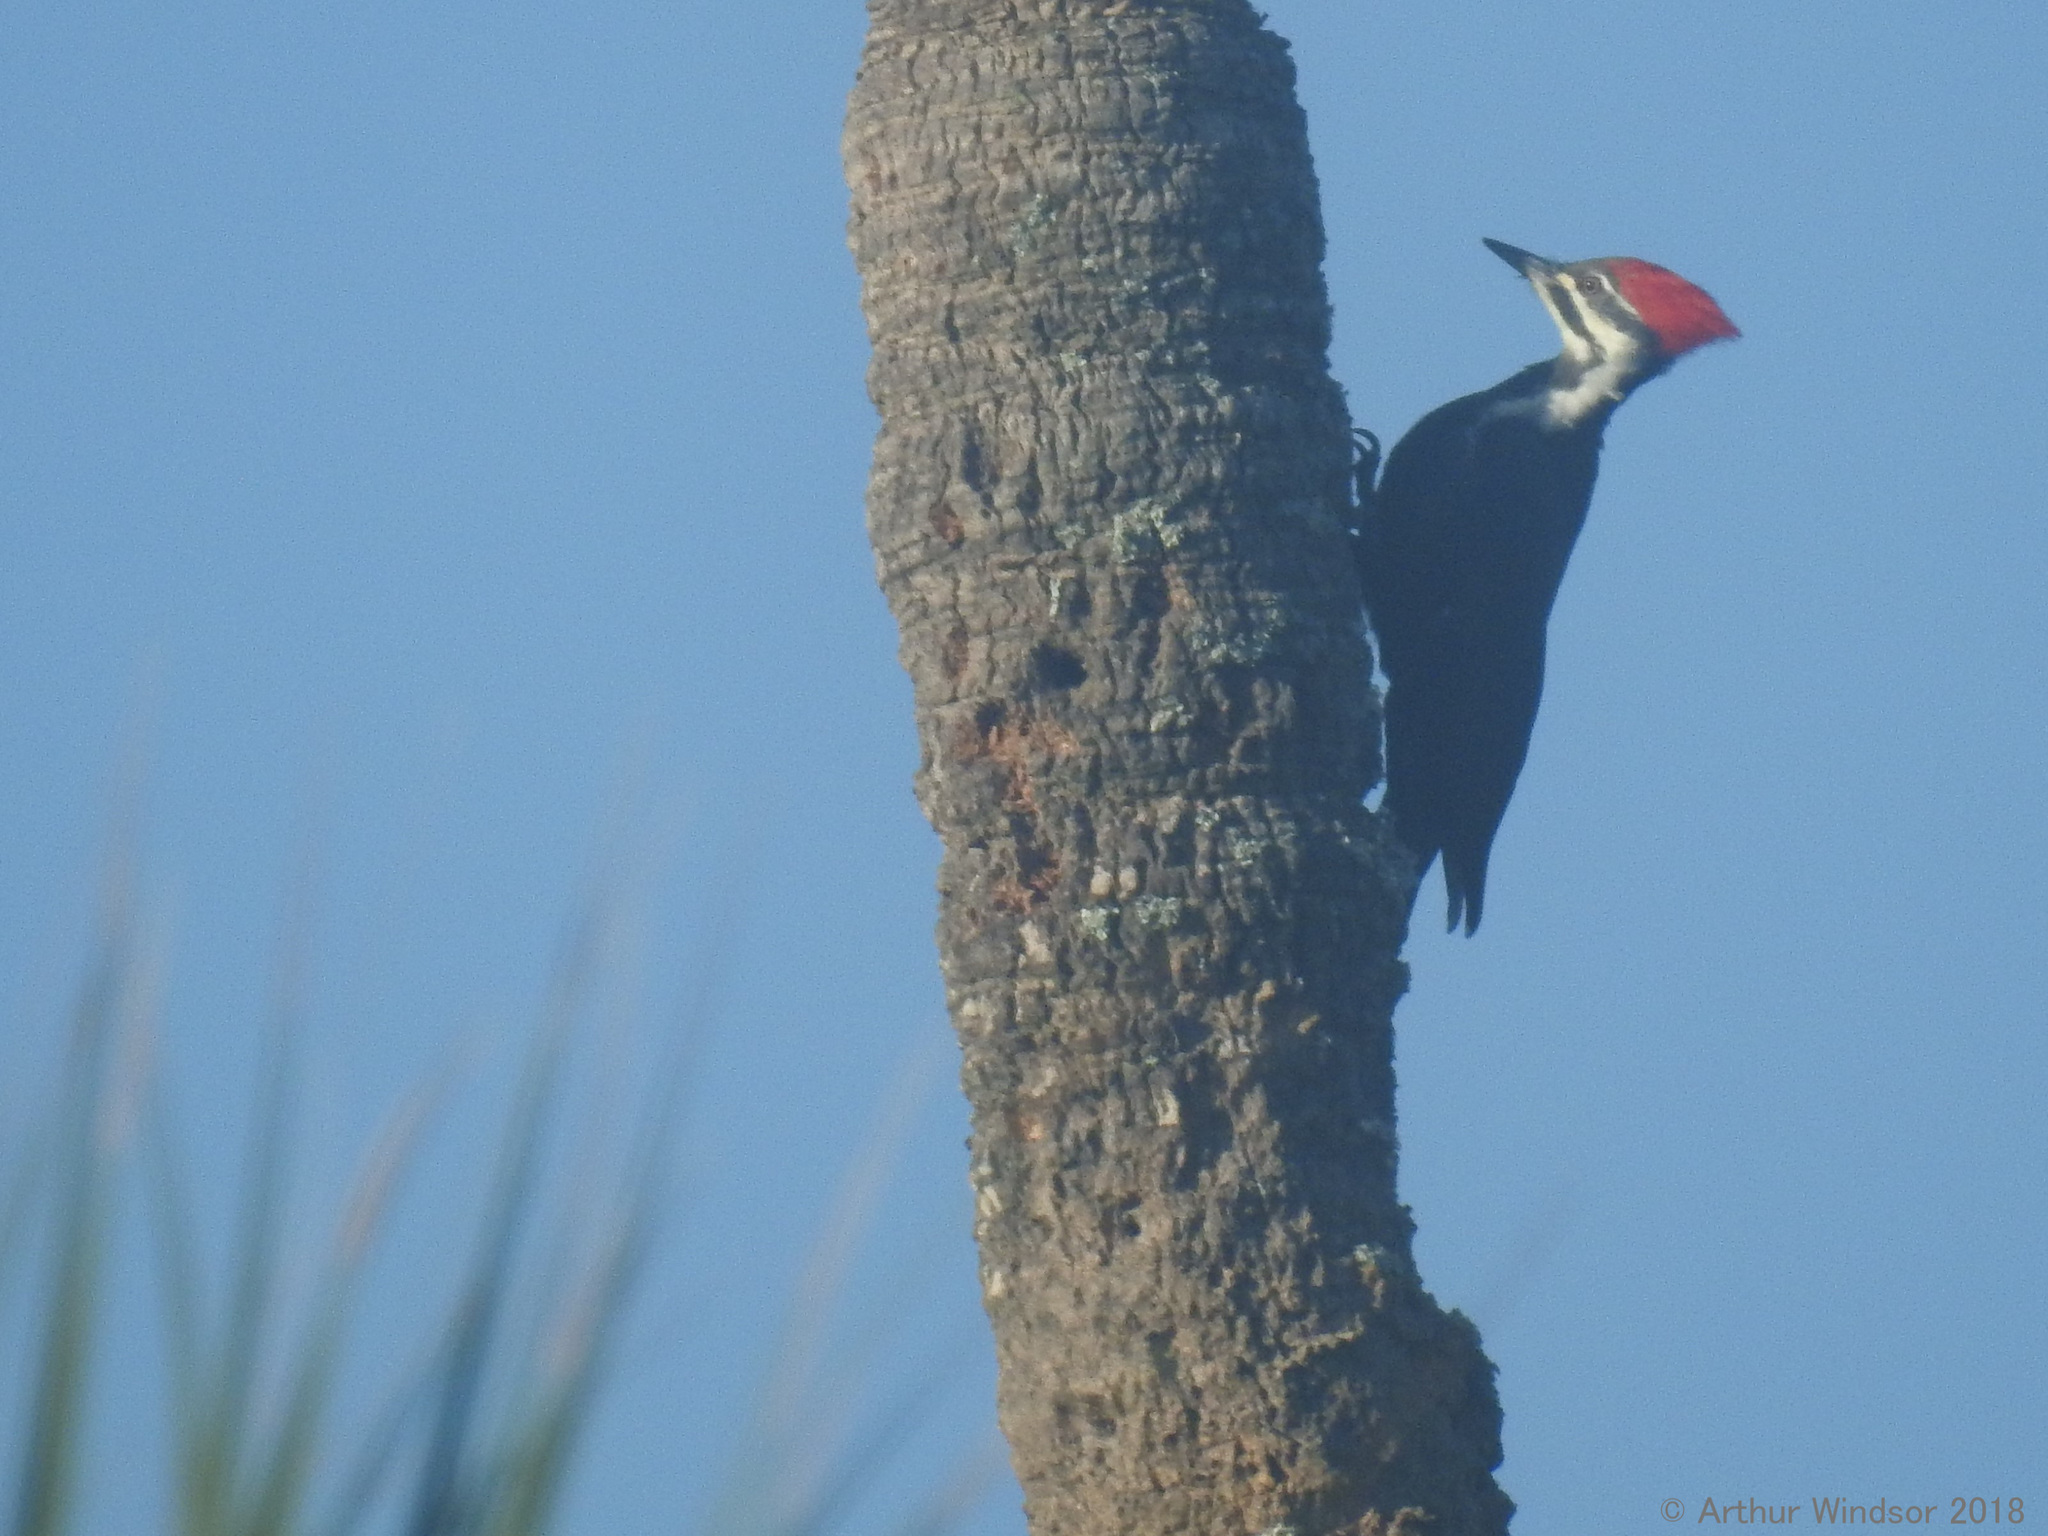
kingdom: Animalia
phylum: Chordata
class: Aves
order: Piciformes
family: Picidae
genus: Dryocopus
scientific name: Dryocopus pileatus
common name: Pileated woodpecker
